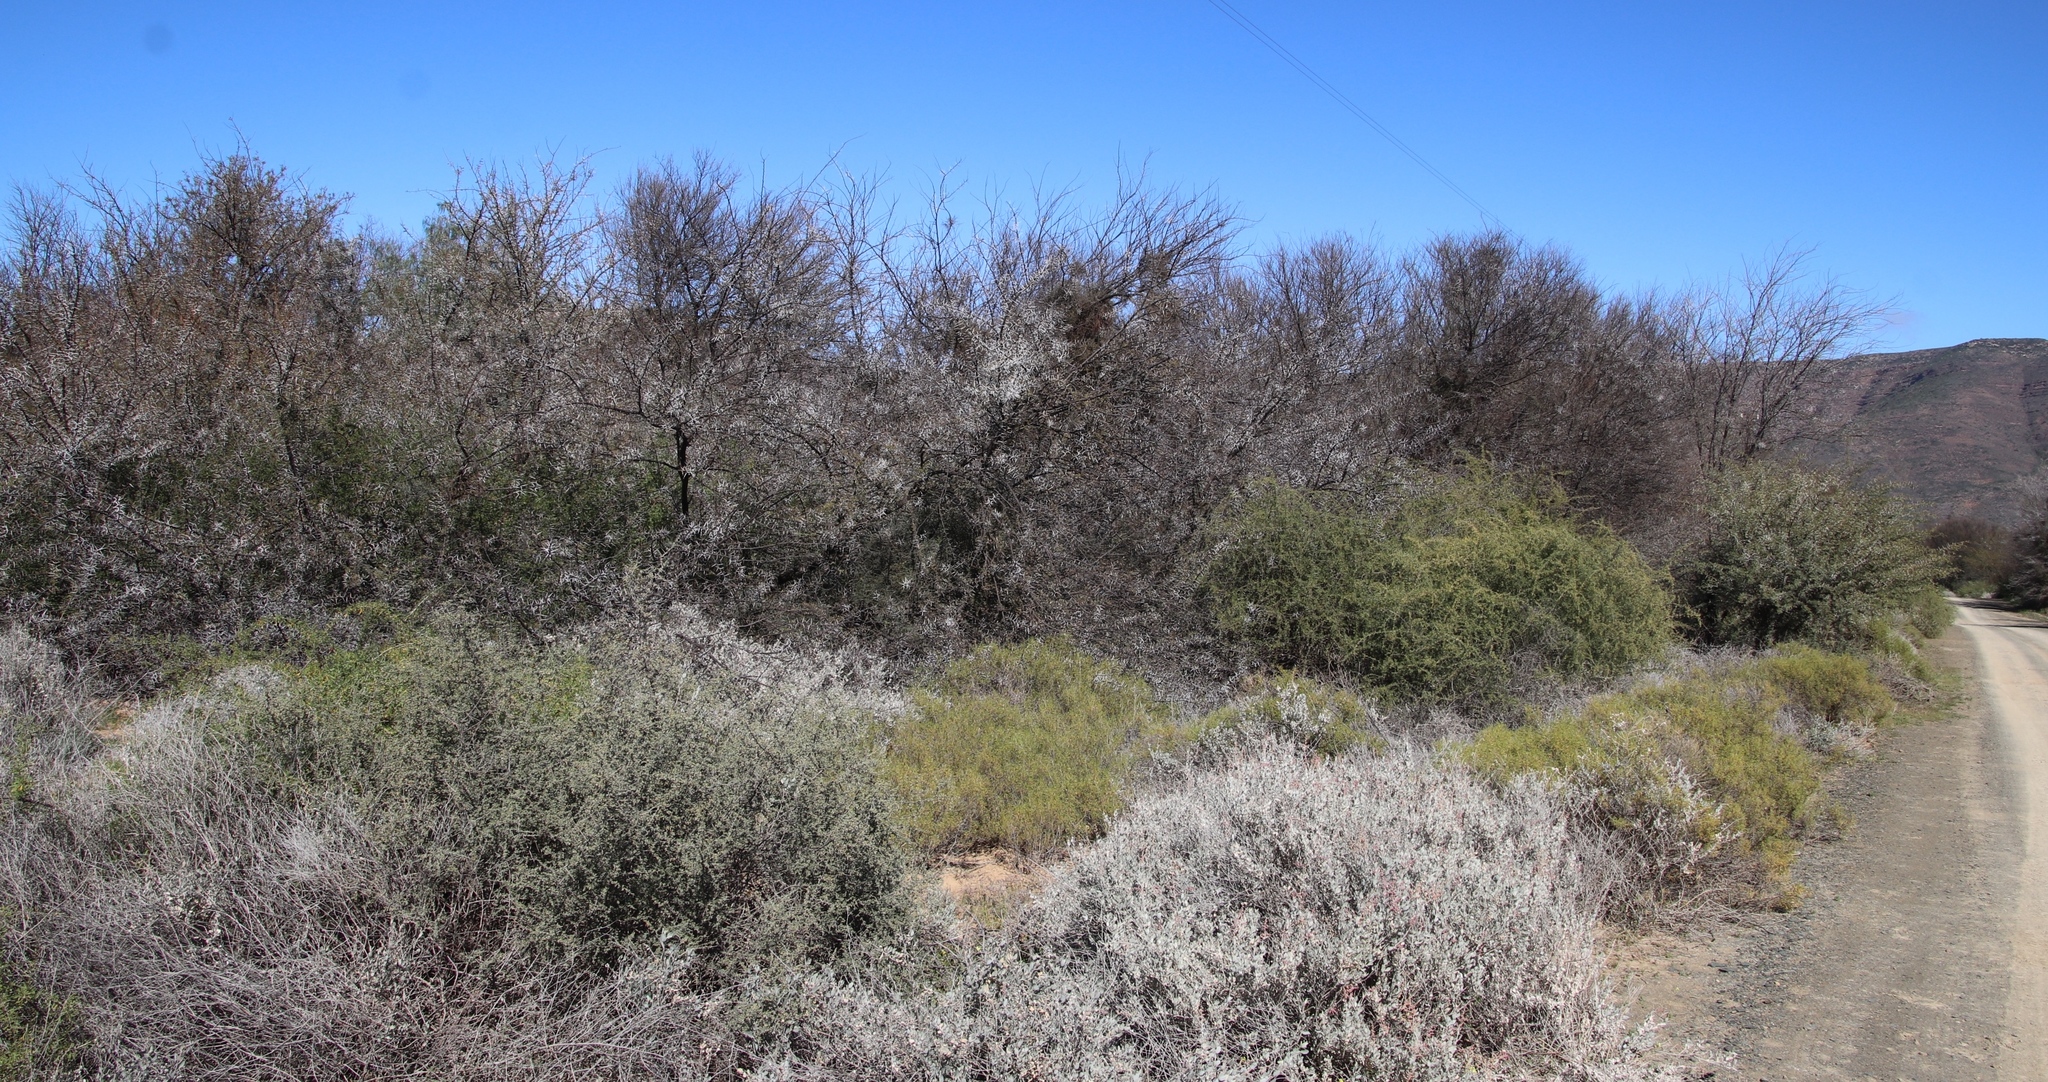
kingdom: Plantae
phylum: Tracheophyta
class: Magnoliopsida
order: Fabales
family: Fabaceae
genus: Vachellia
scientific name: Vachellia karroo
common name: Sweet thorn
